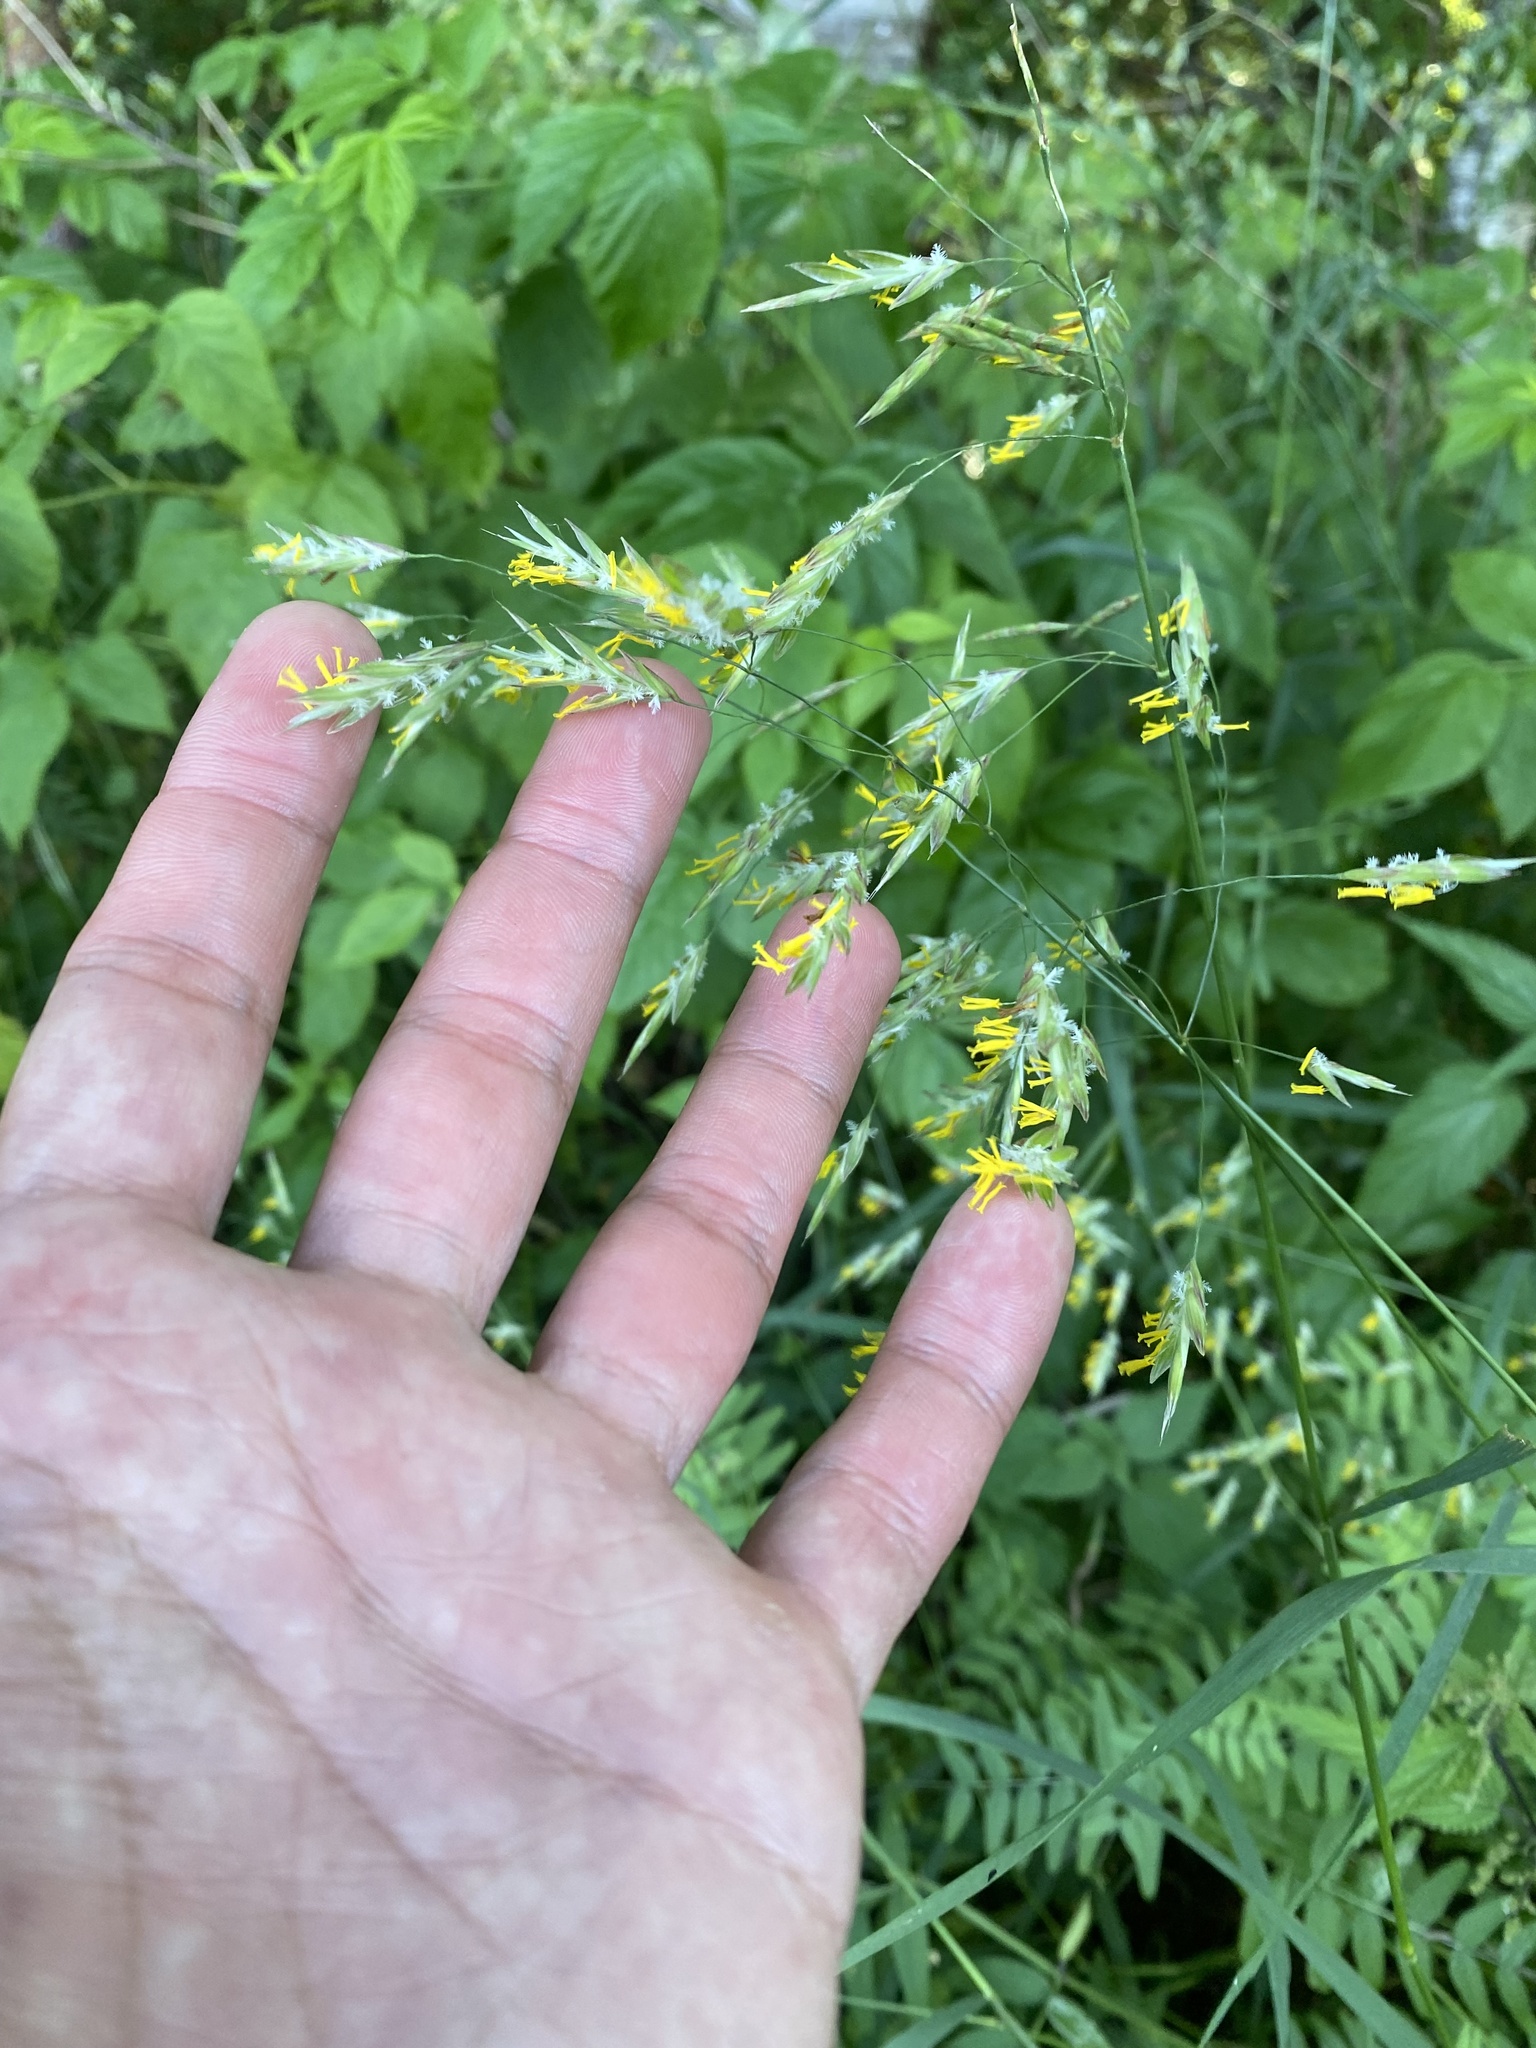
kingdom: Plantae
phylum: Tracheophyta
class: Liliopsida
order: Poales
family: Poaceae
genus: Bromus
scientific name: Bromus inermis
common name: Smooth brome
